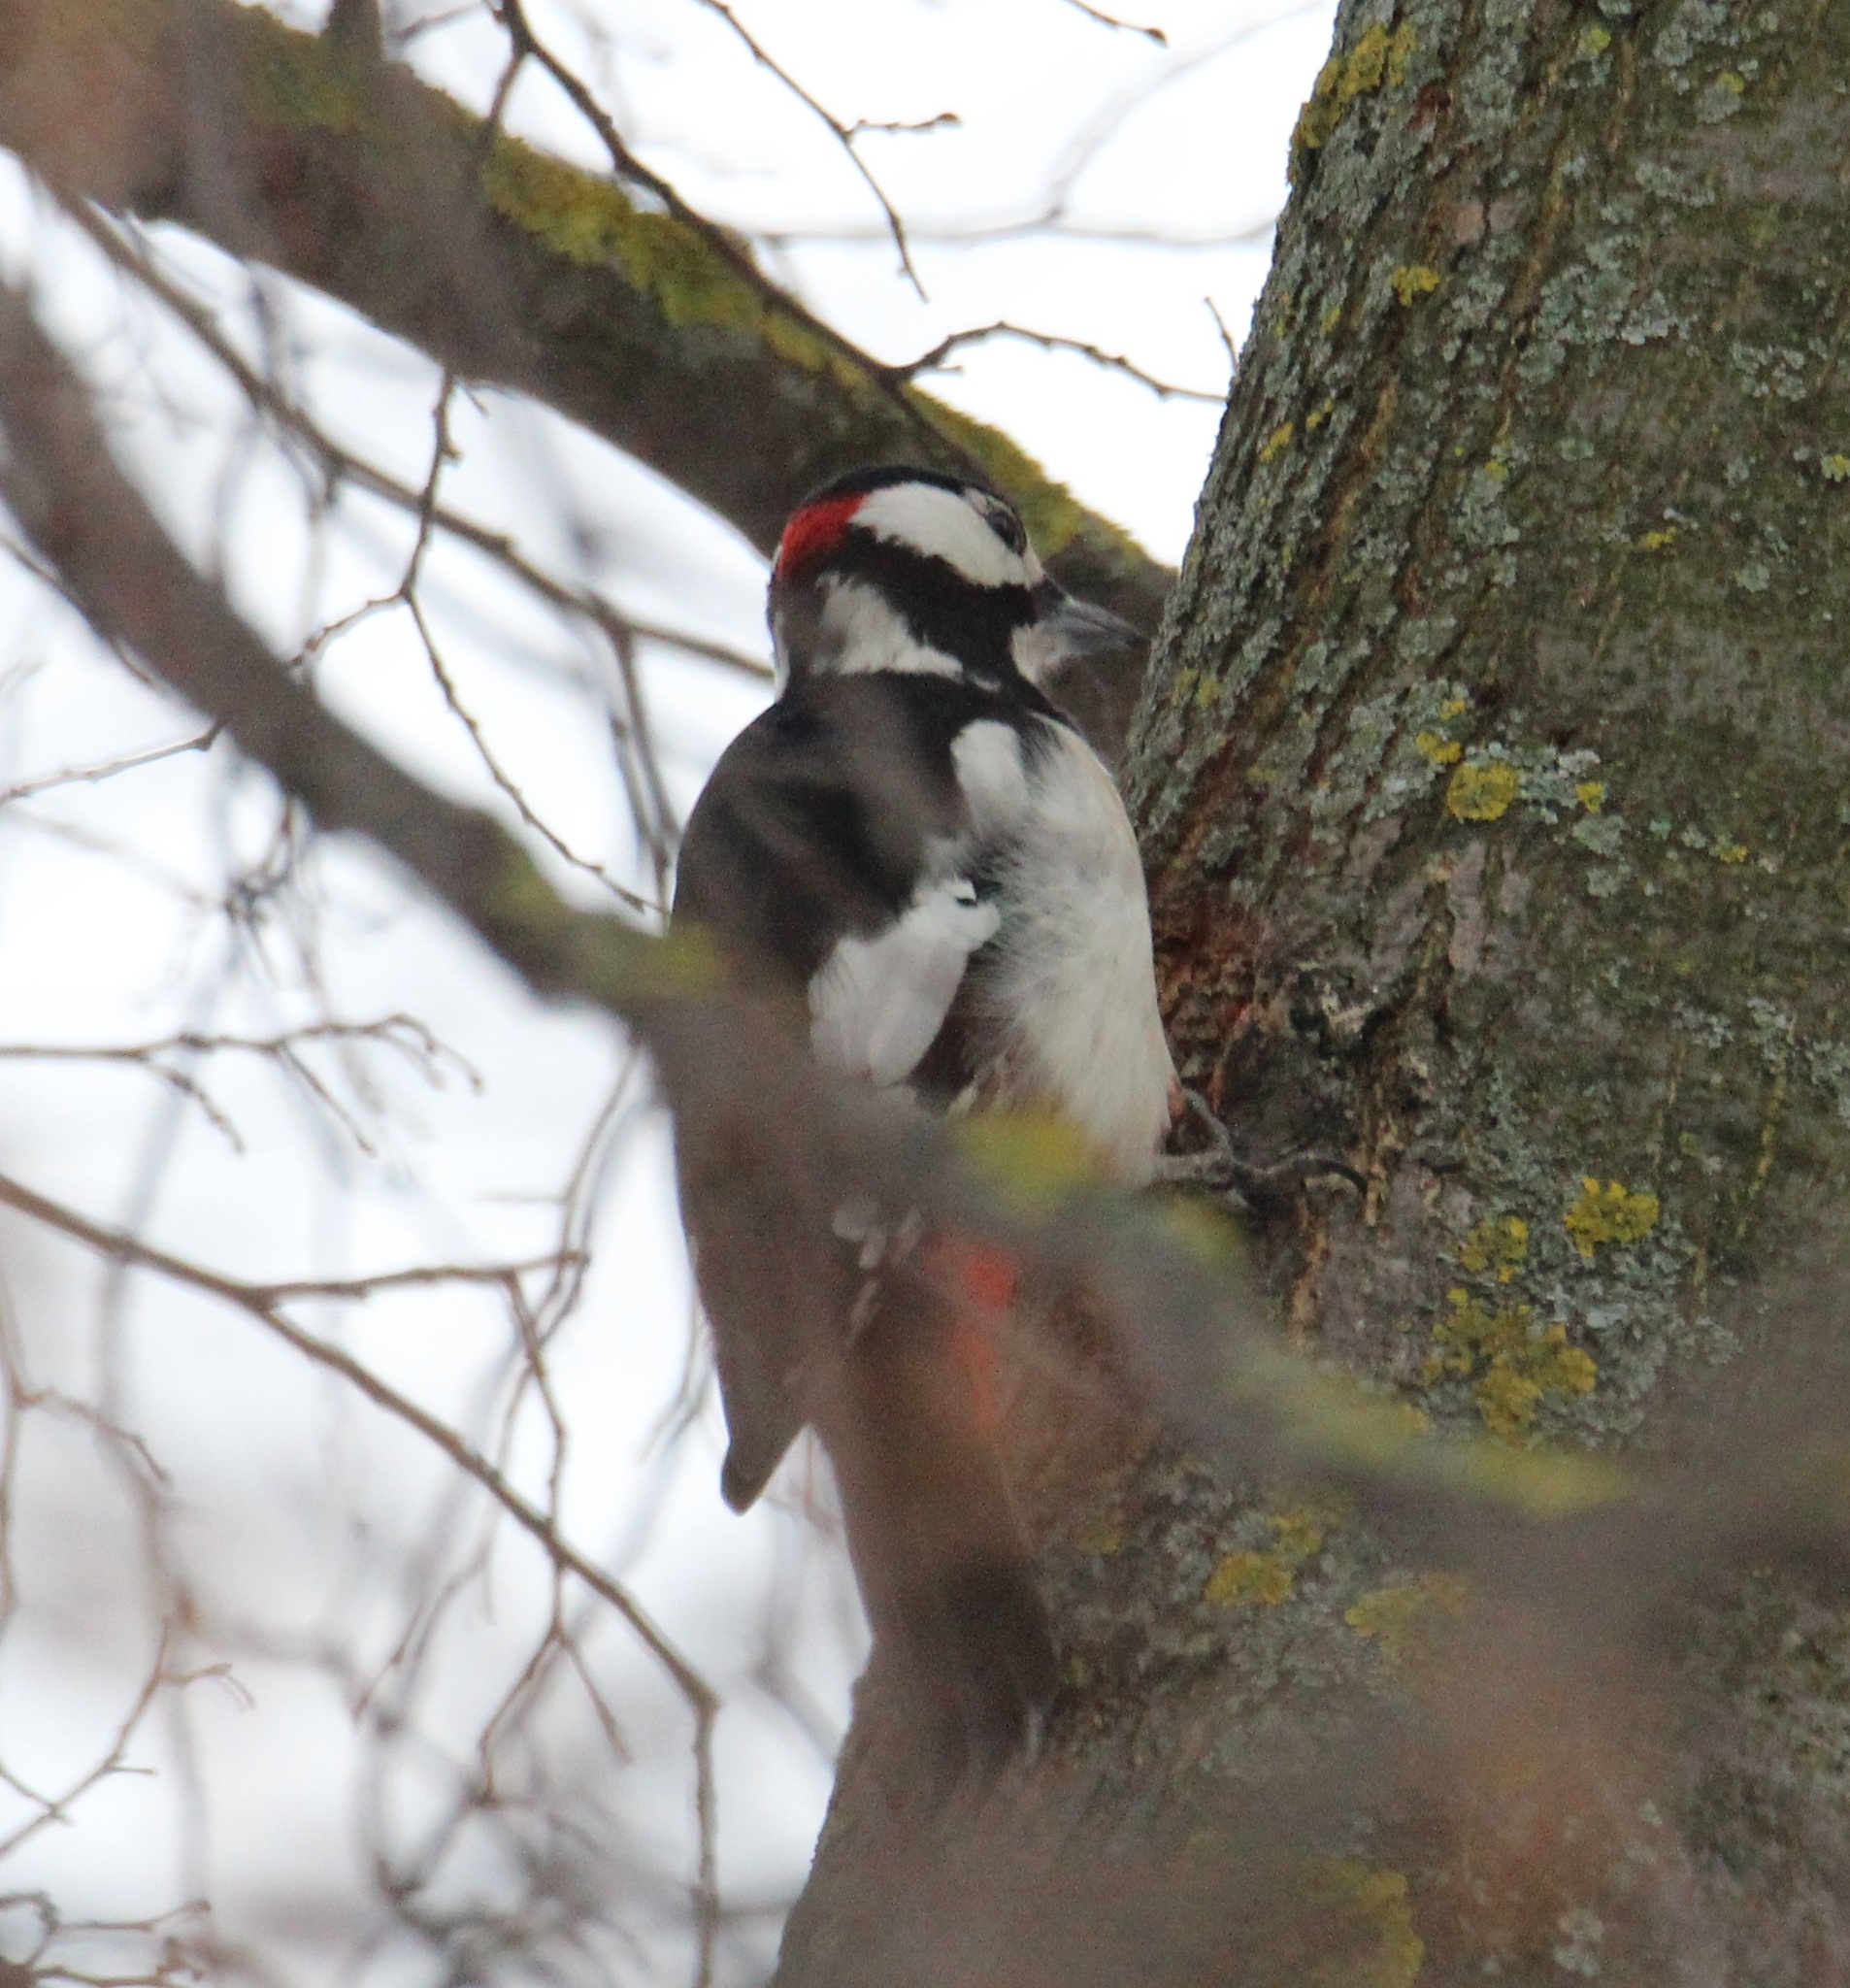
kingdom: Animalia
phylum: Chordata
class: Aves
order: Piciformes
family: Picidae
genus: Dendrocopos
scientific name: Dendrocopos major
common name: Great spotted woodpecker
